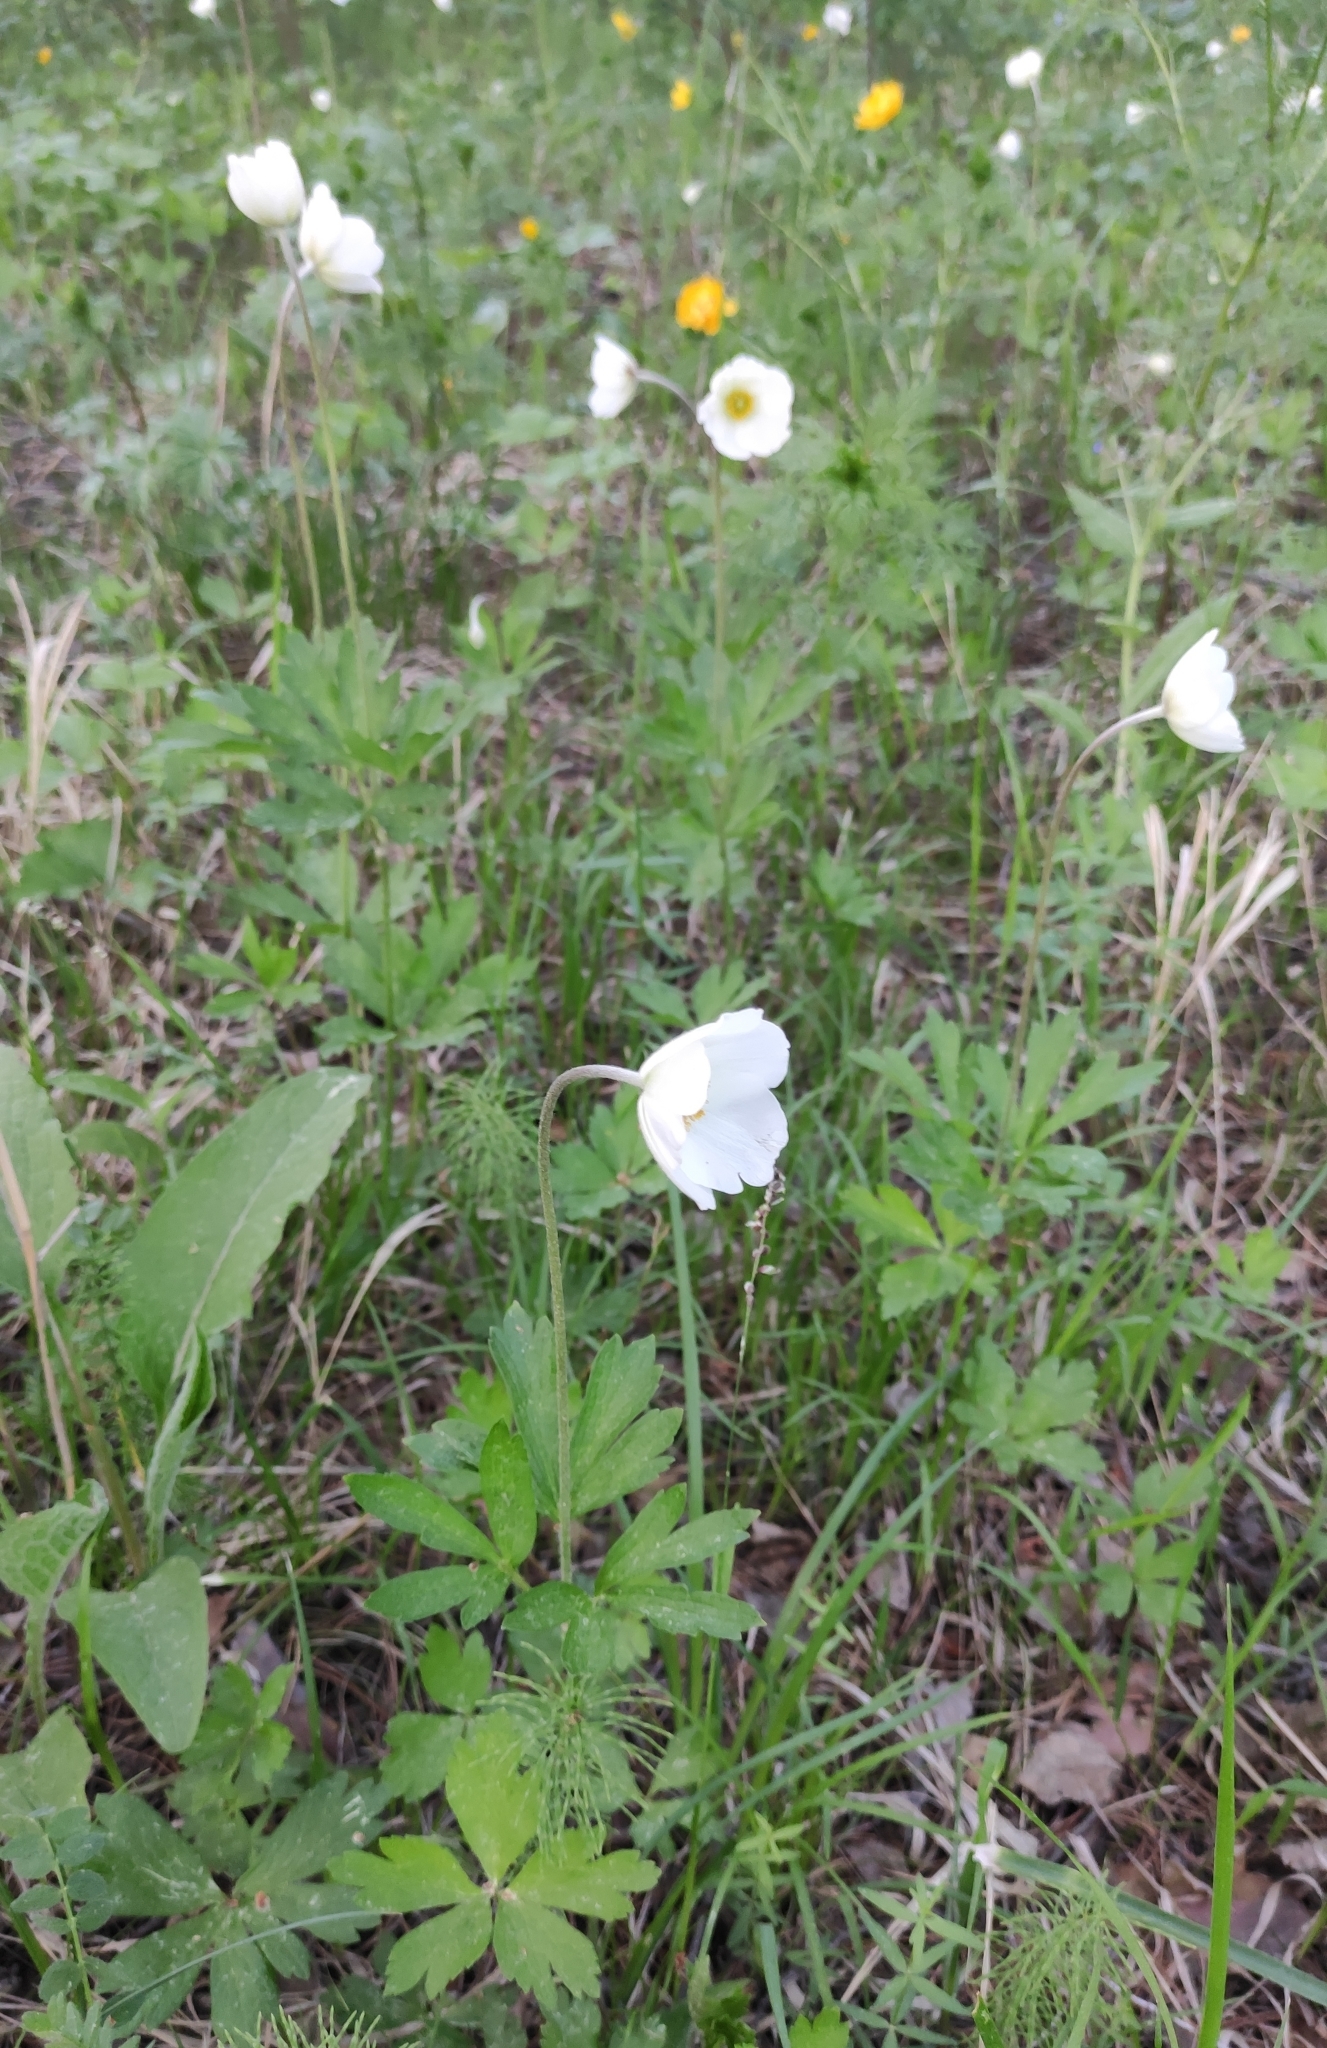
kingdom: Plantae
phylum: Tracheophyta
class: Magnoliopsida
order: Ranunculales
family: Ranunculaceae
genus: Anemone
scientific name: Anemone sylvestris
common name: Snowdrop anemone
